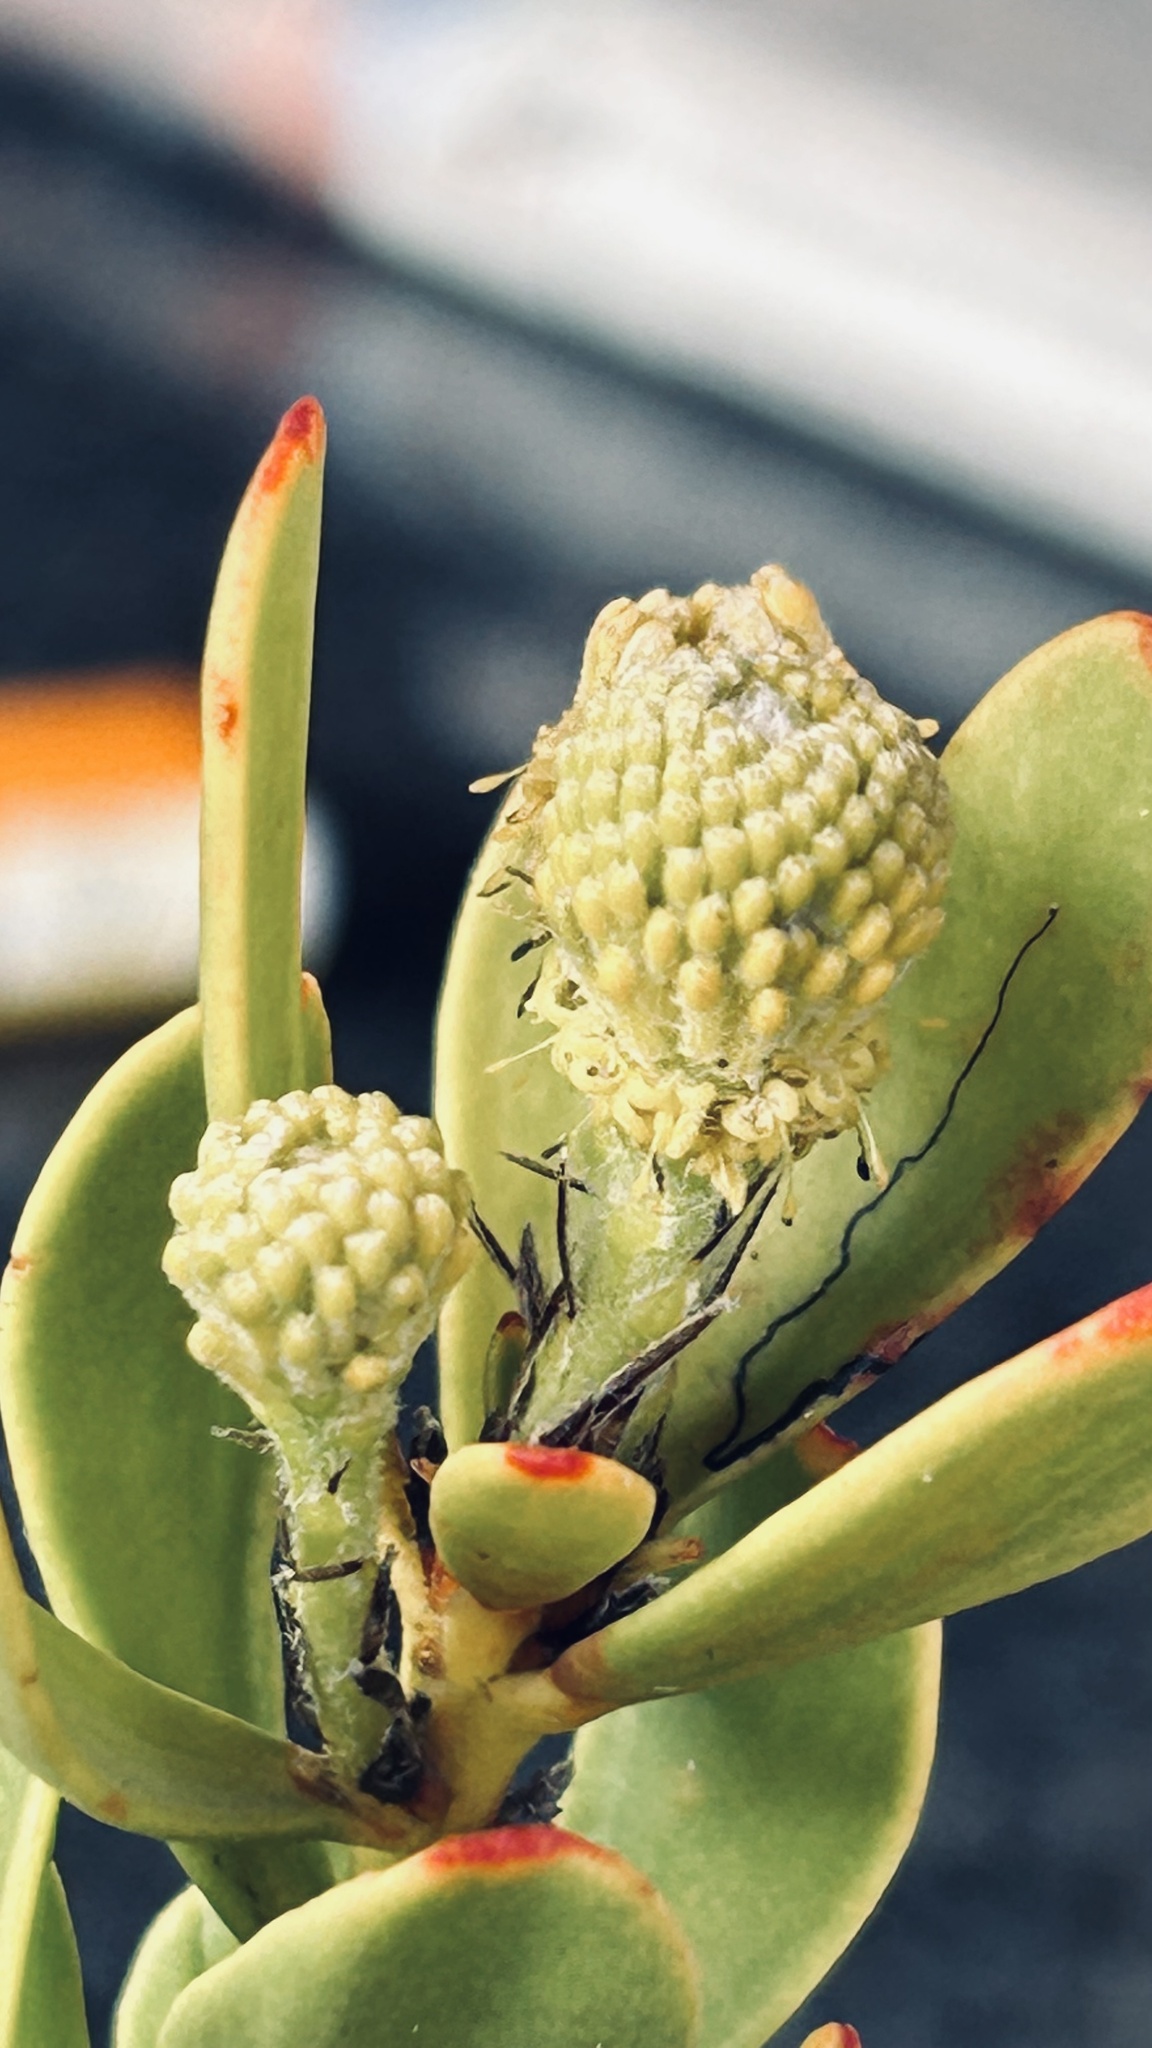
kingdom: Plantae
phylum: Tracheophyta
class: Magnoliopsida
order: Proteales
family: Proteaceae
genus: Leucadendron
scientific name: Leucadendron muirii
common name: Silver-ball conebush
